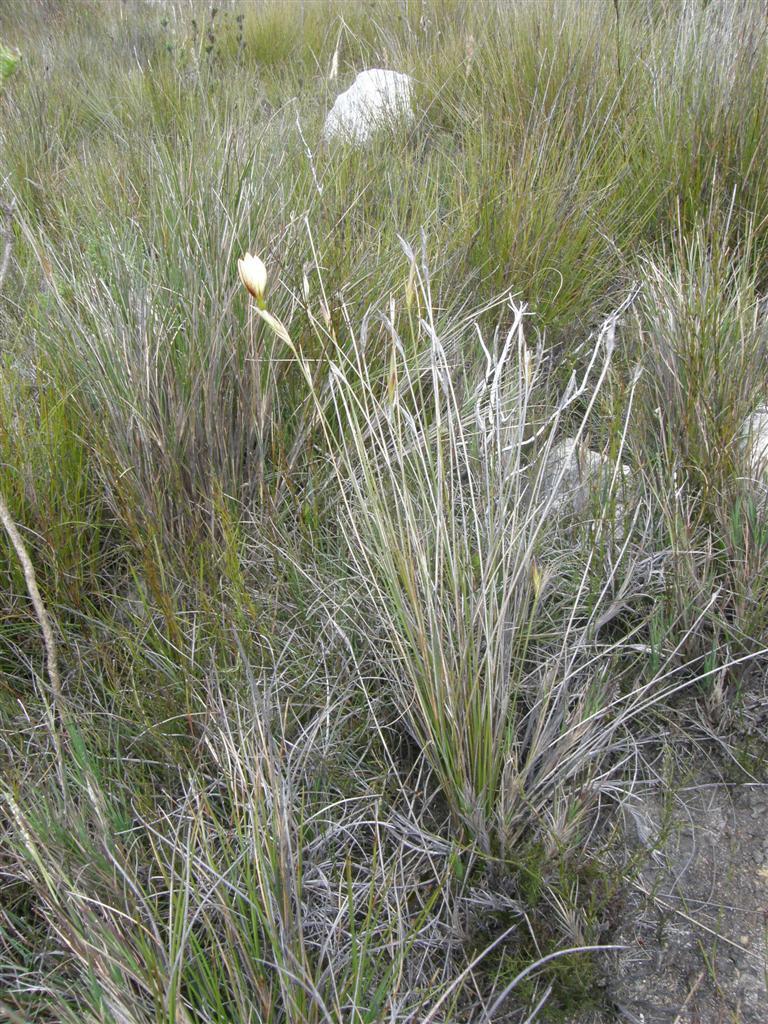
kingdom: Plantae
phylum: Tracheophyta
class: Liliopsida
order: Asparagales
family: Iridaceae
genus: Bobartia
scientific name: Bobartia filiformis
